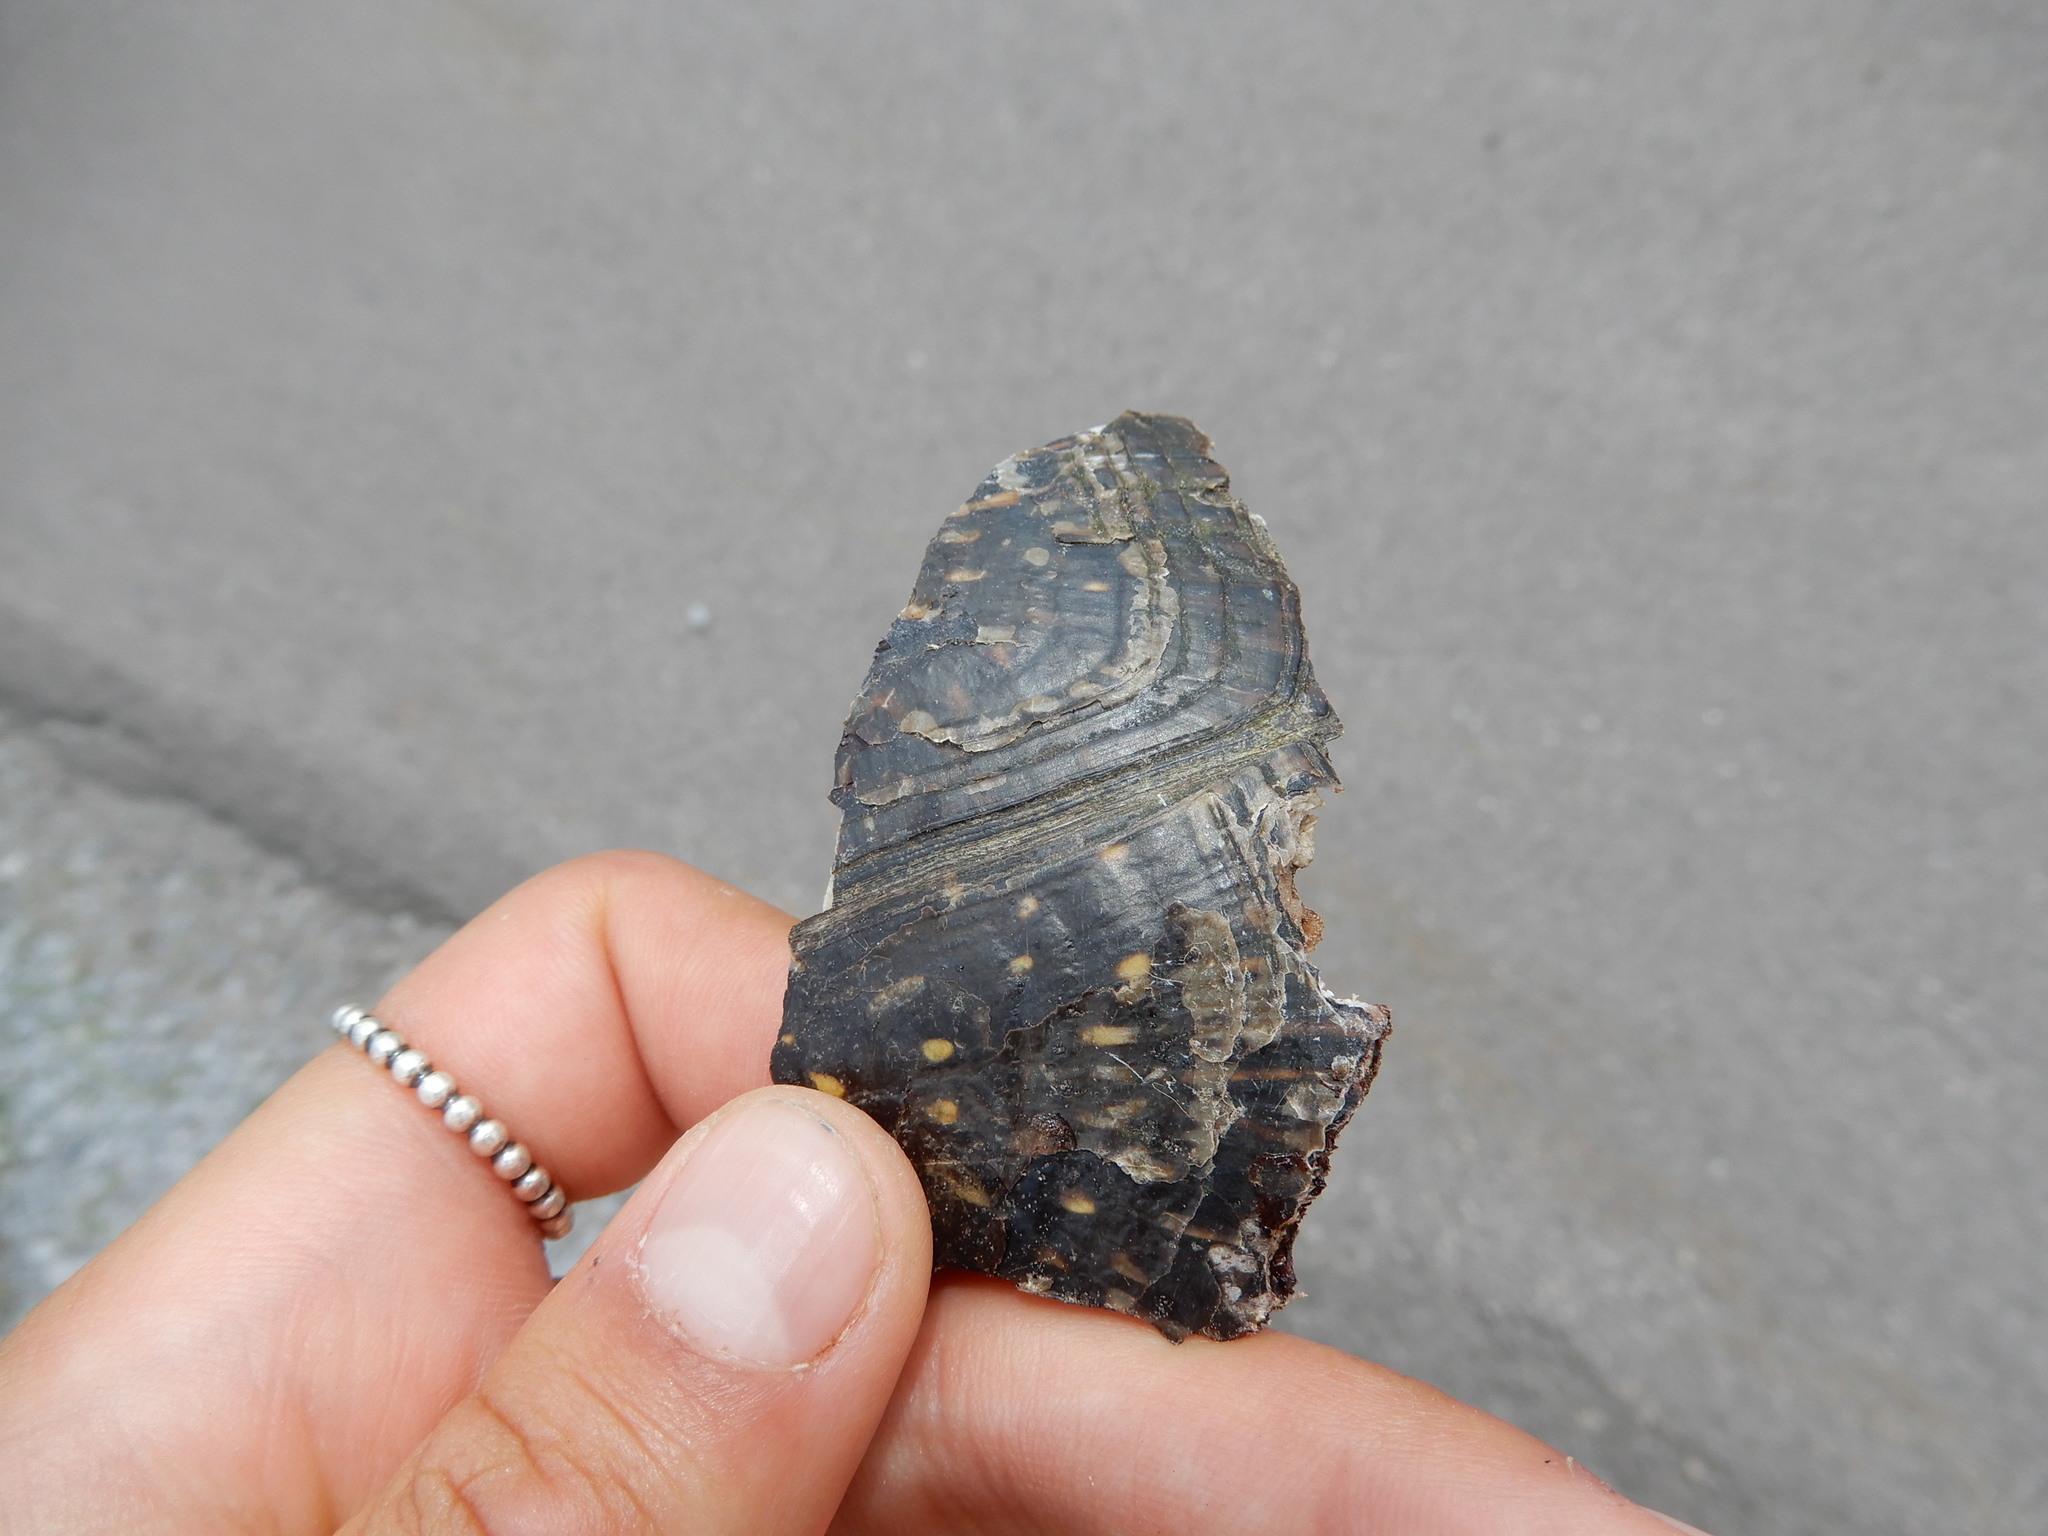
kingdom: Animalia
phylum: Chordata
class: Testudines
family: Emydidae
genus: Emys
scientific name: Emys blandingii
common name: Blanding's turtle
